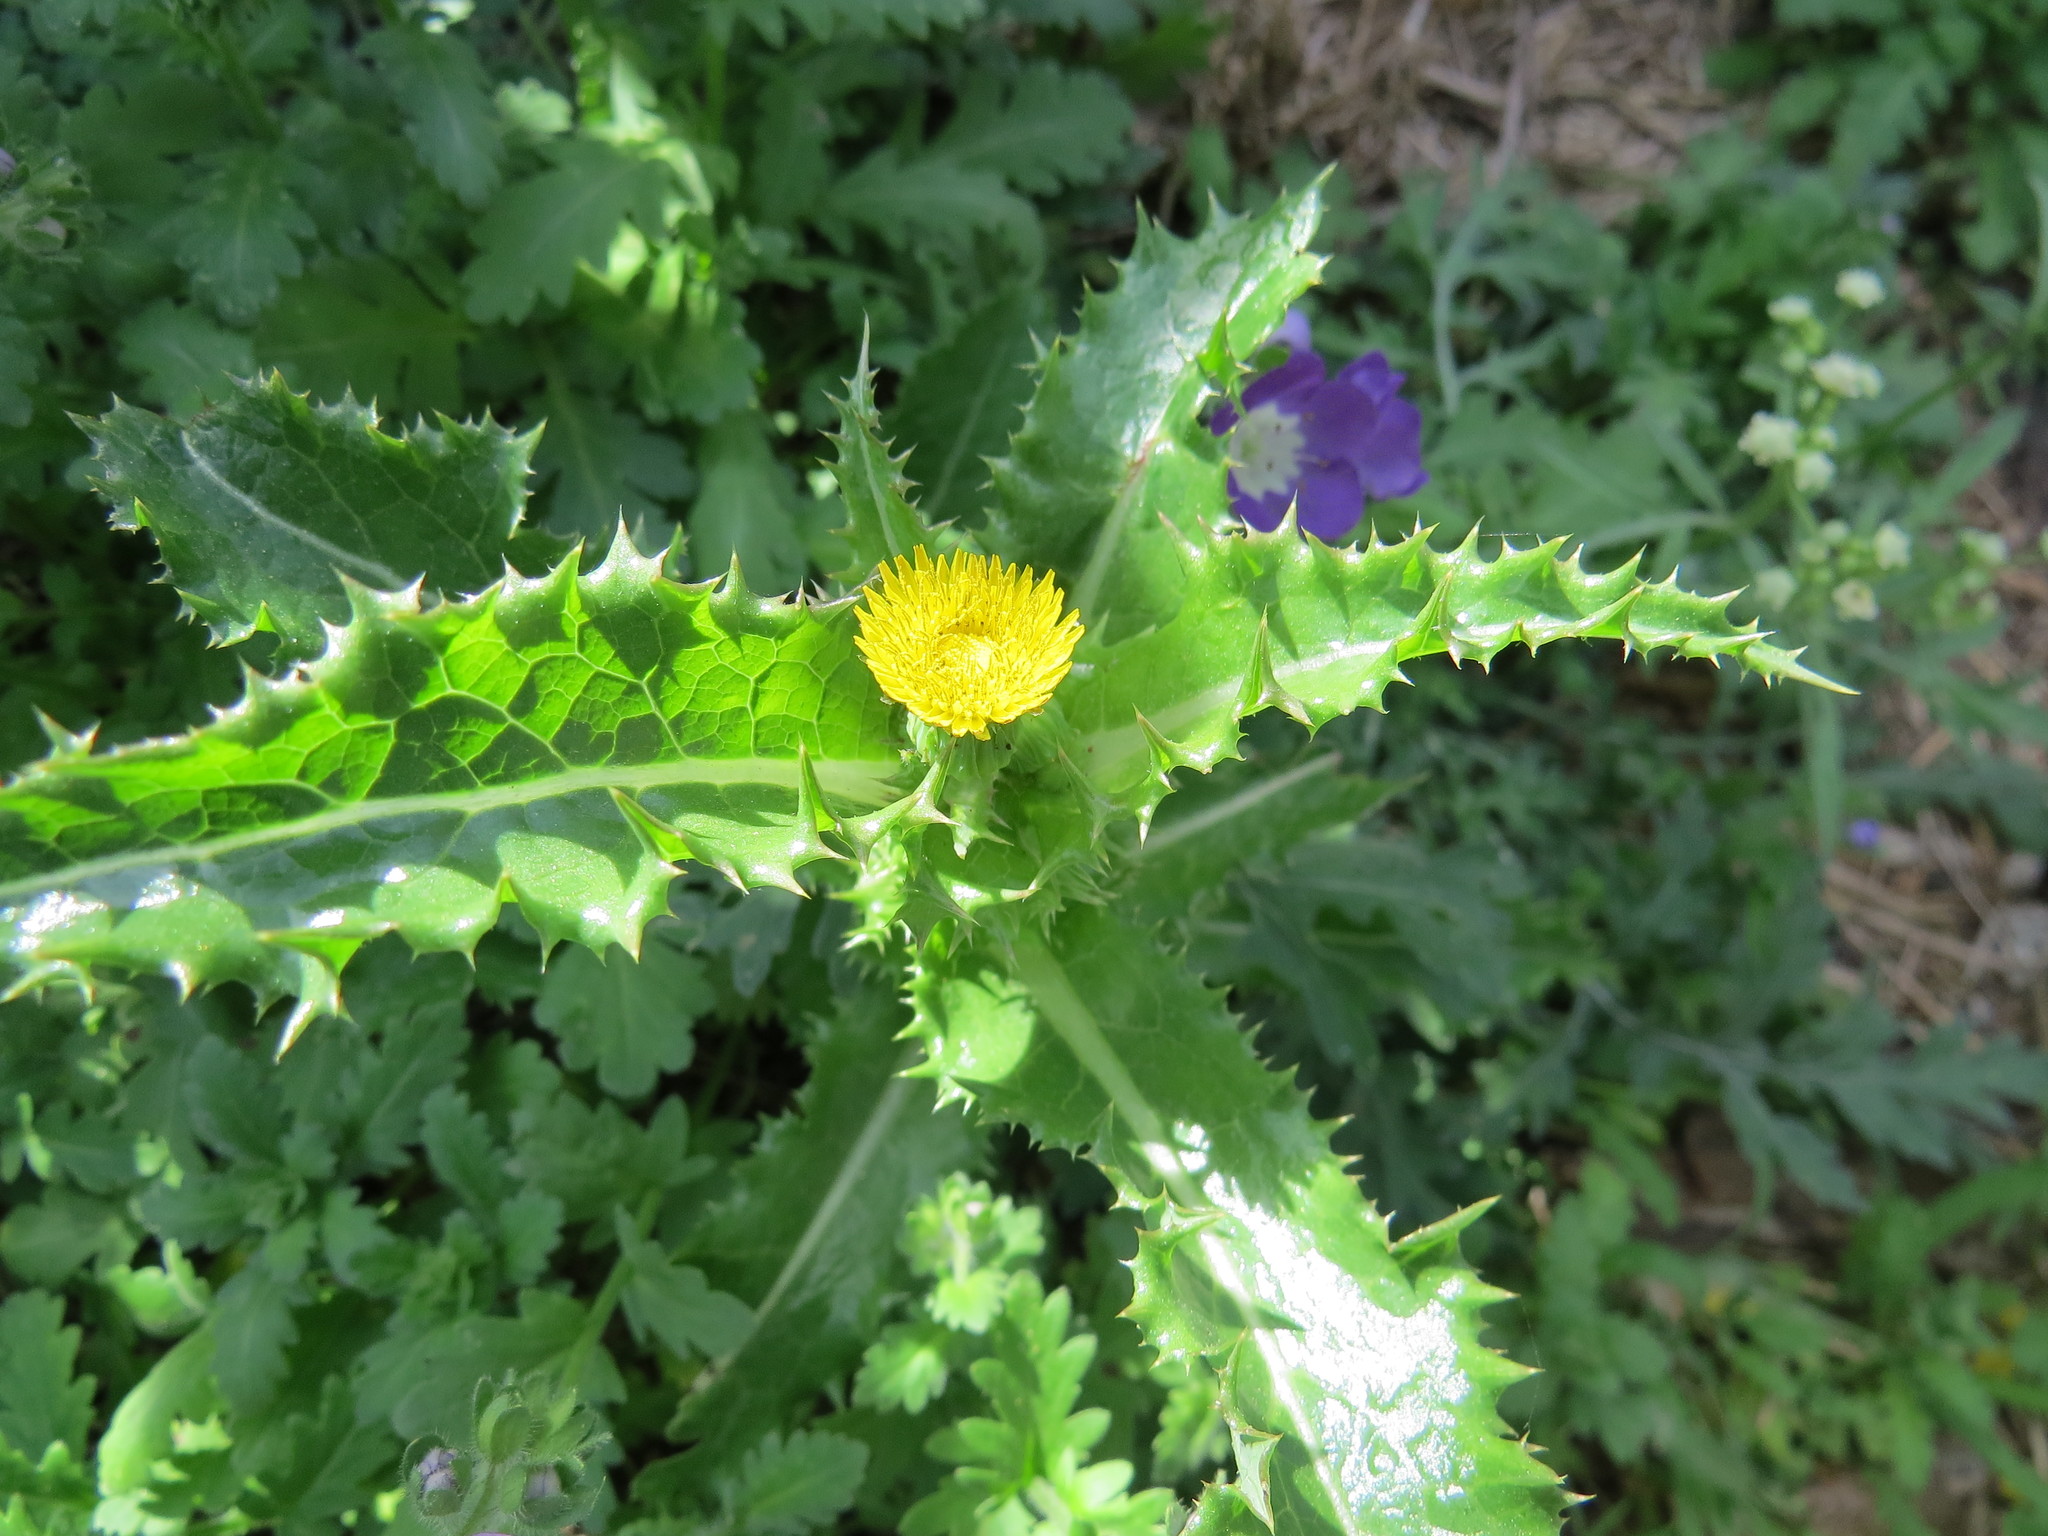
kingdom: Plantae
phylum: Tracheophyta
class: Magnoliopsida
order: Asterales
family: Asteraceae
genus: Sonchus
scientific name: Sonchus asper
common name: Prickly sow-thistle
